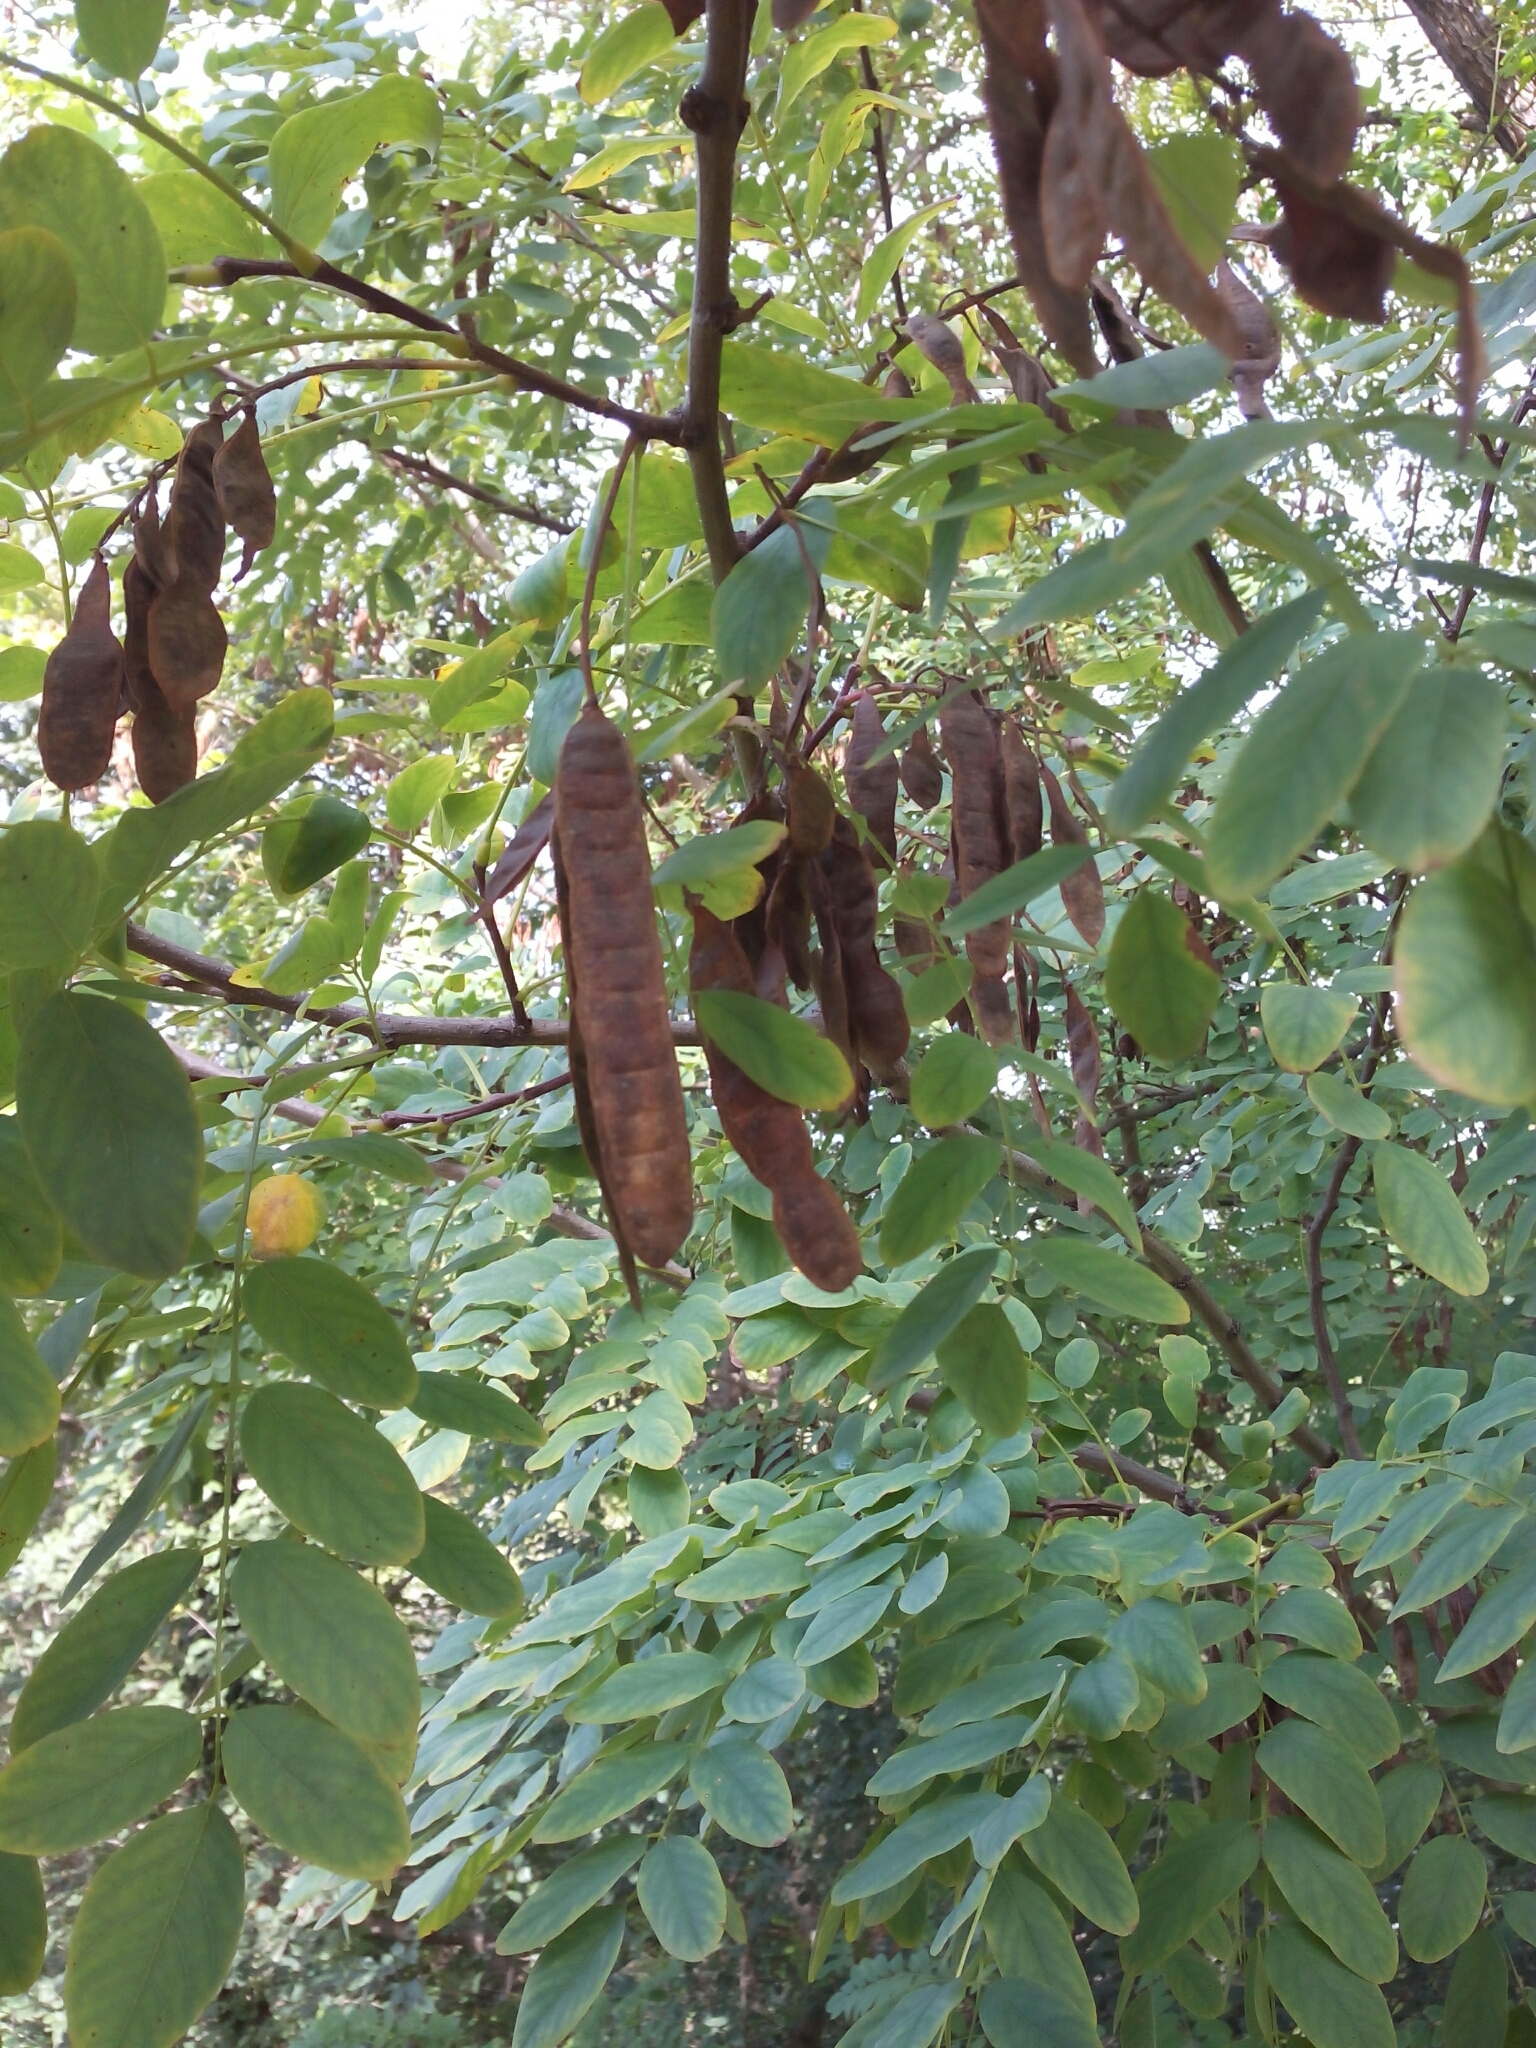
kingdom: Plantae
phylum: Tracheophyta
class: Magnoliopsida
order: Fabales
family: Fabaceae
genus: Robinia
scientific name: Robinia pseudoacacia
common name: Black locust
